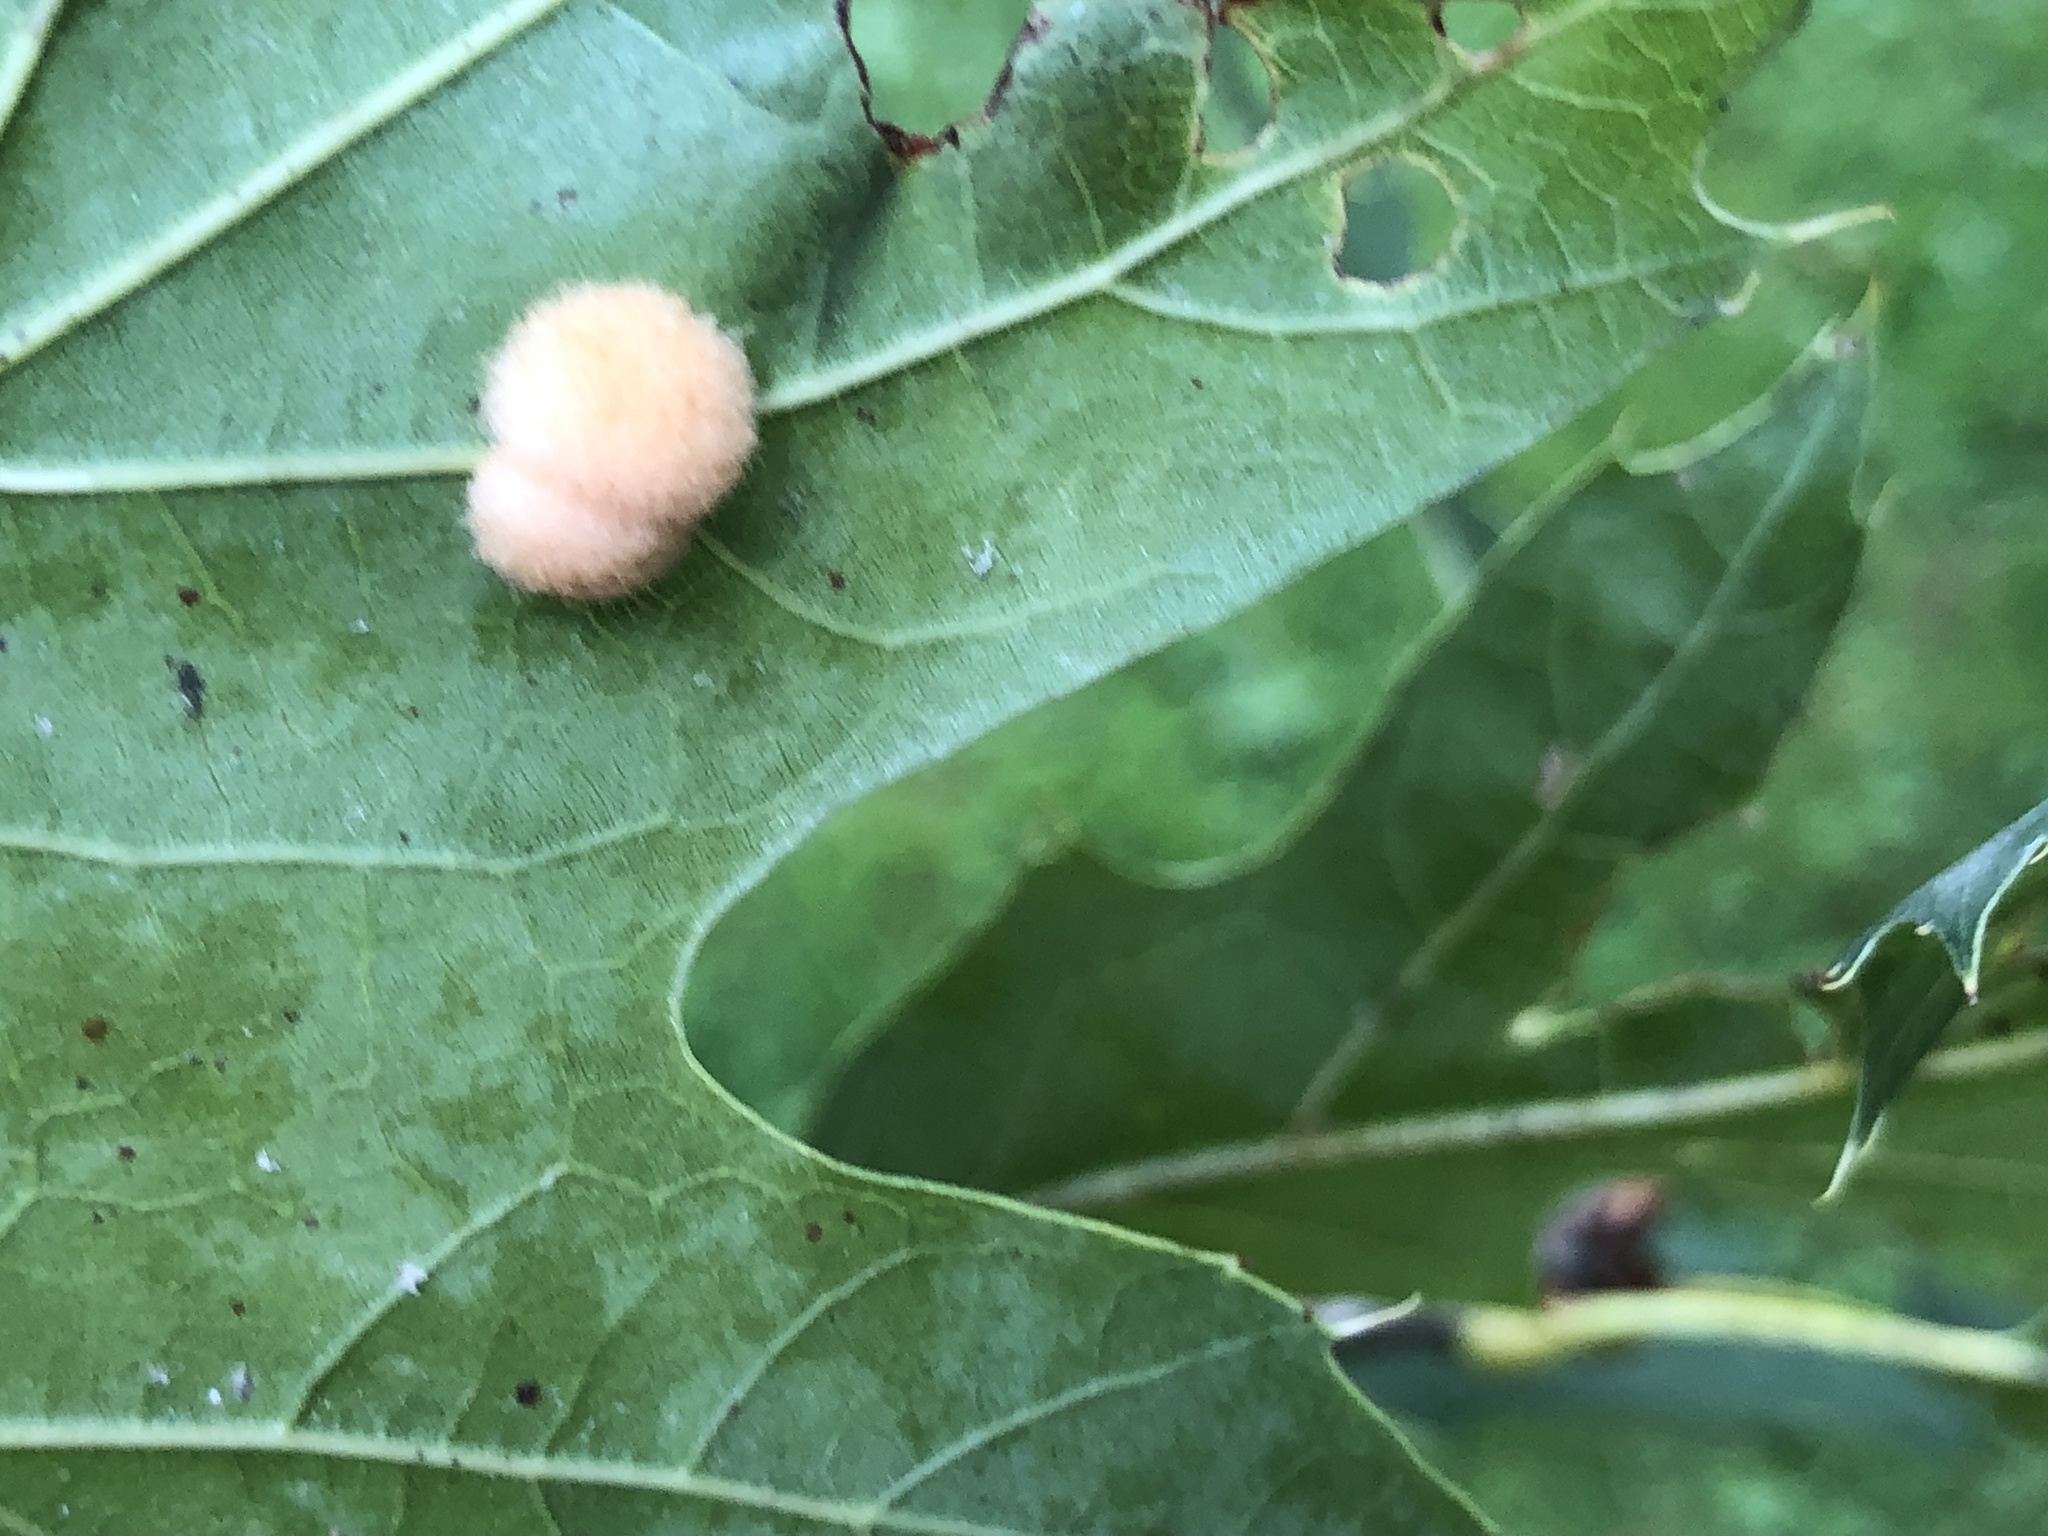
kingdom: Animalia
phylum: Arthropoda
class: Insecta
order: Hymenoptera
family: Cynipidae
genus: Callirhytis
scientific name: Callirhytis
